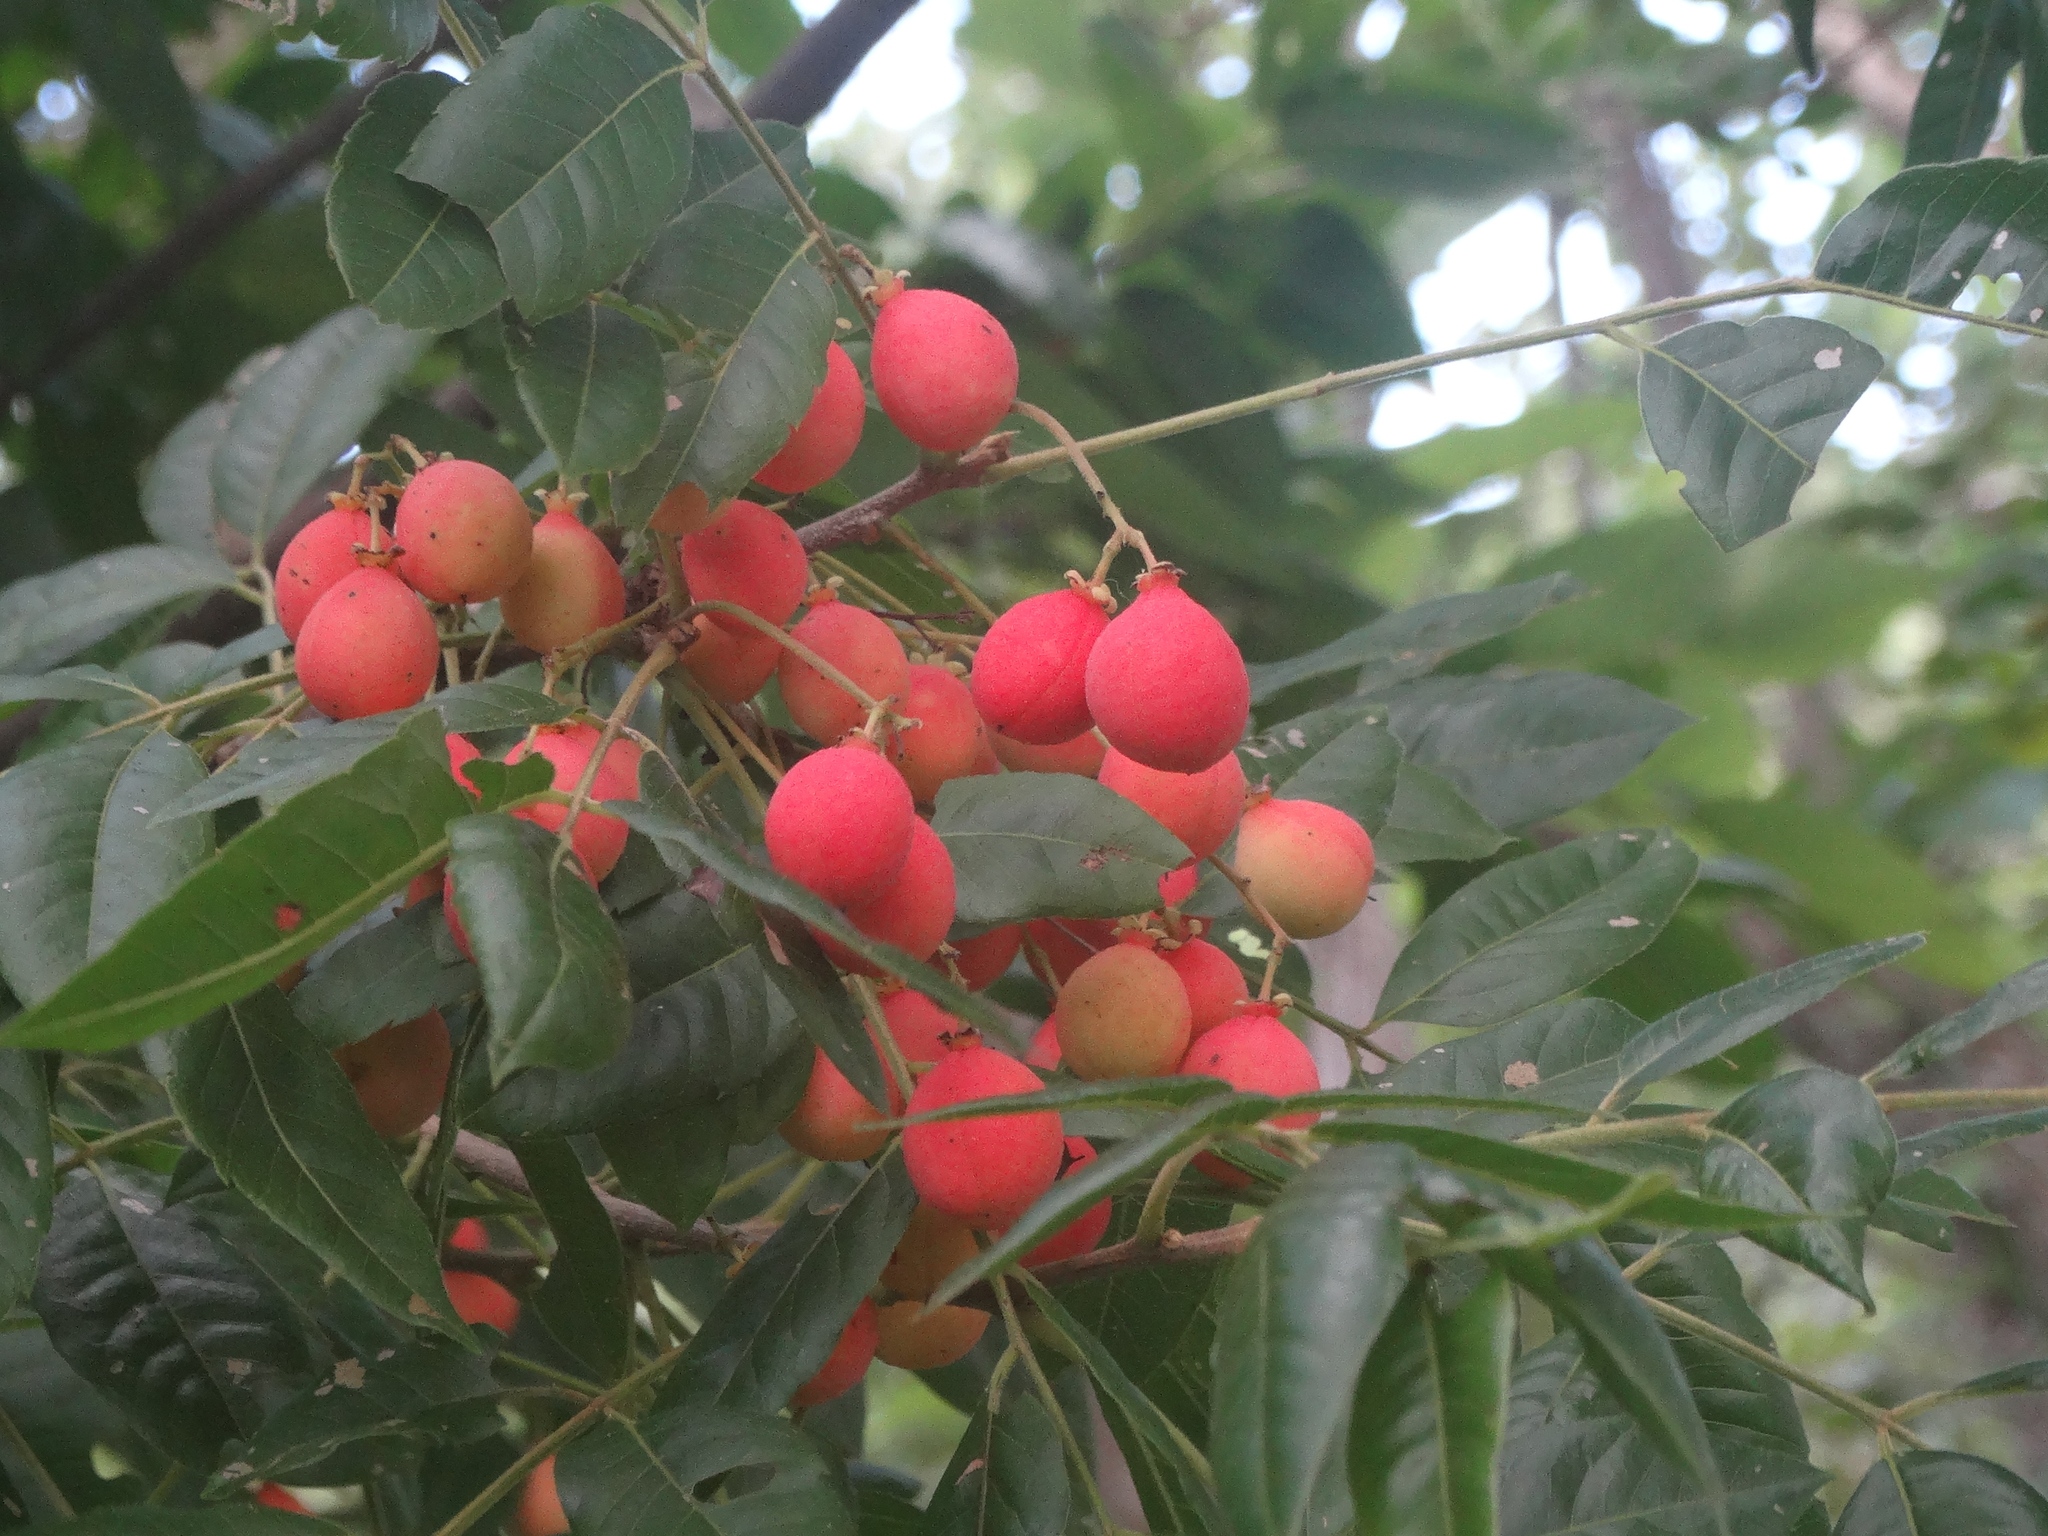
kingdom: Plantae
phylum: Tracheophyta
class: Magnoliopsida
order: Sapindales
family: Meliaceae
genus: Trichilia
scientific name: Trichilia
